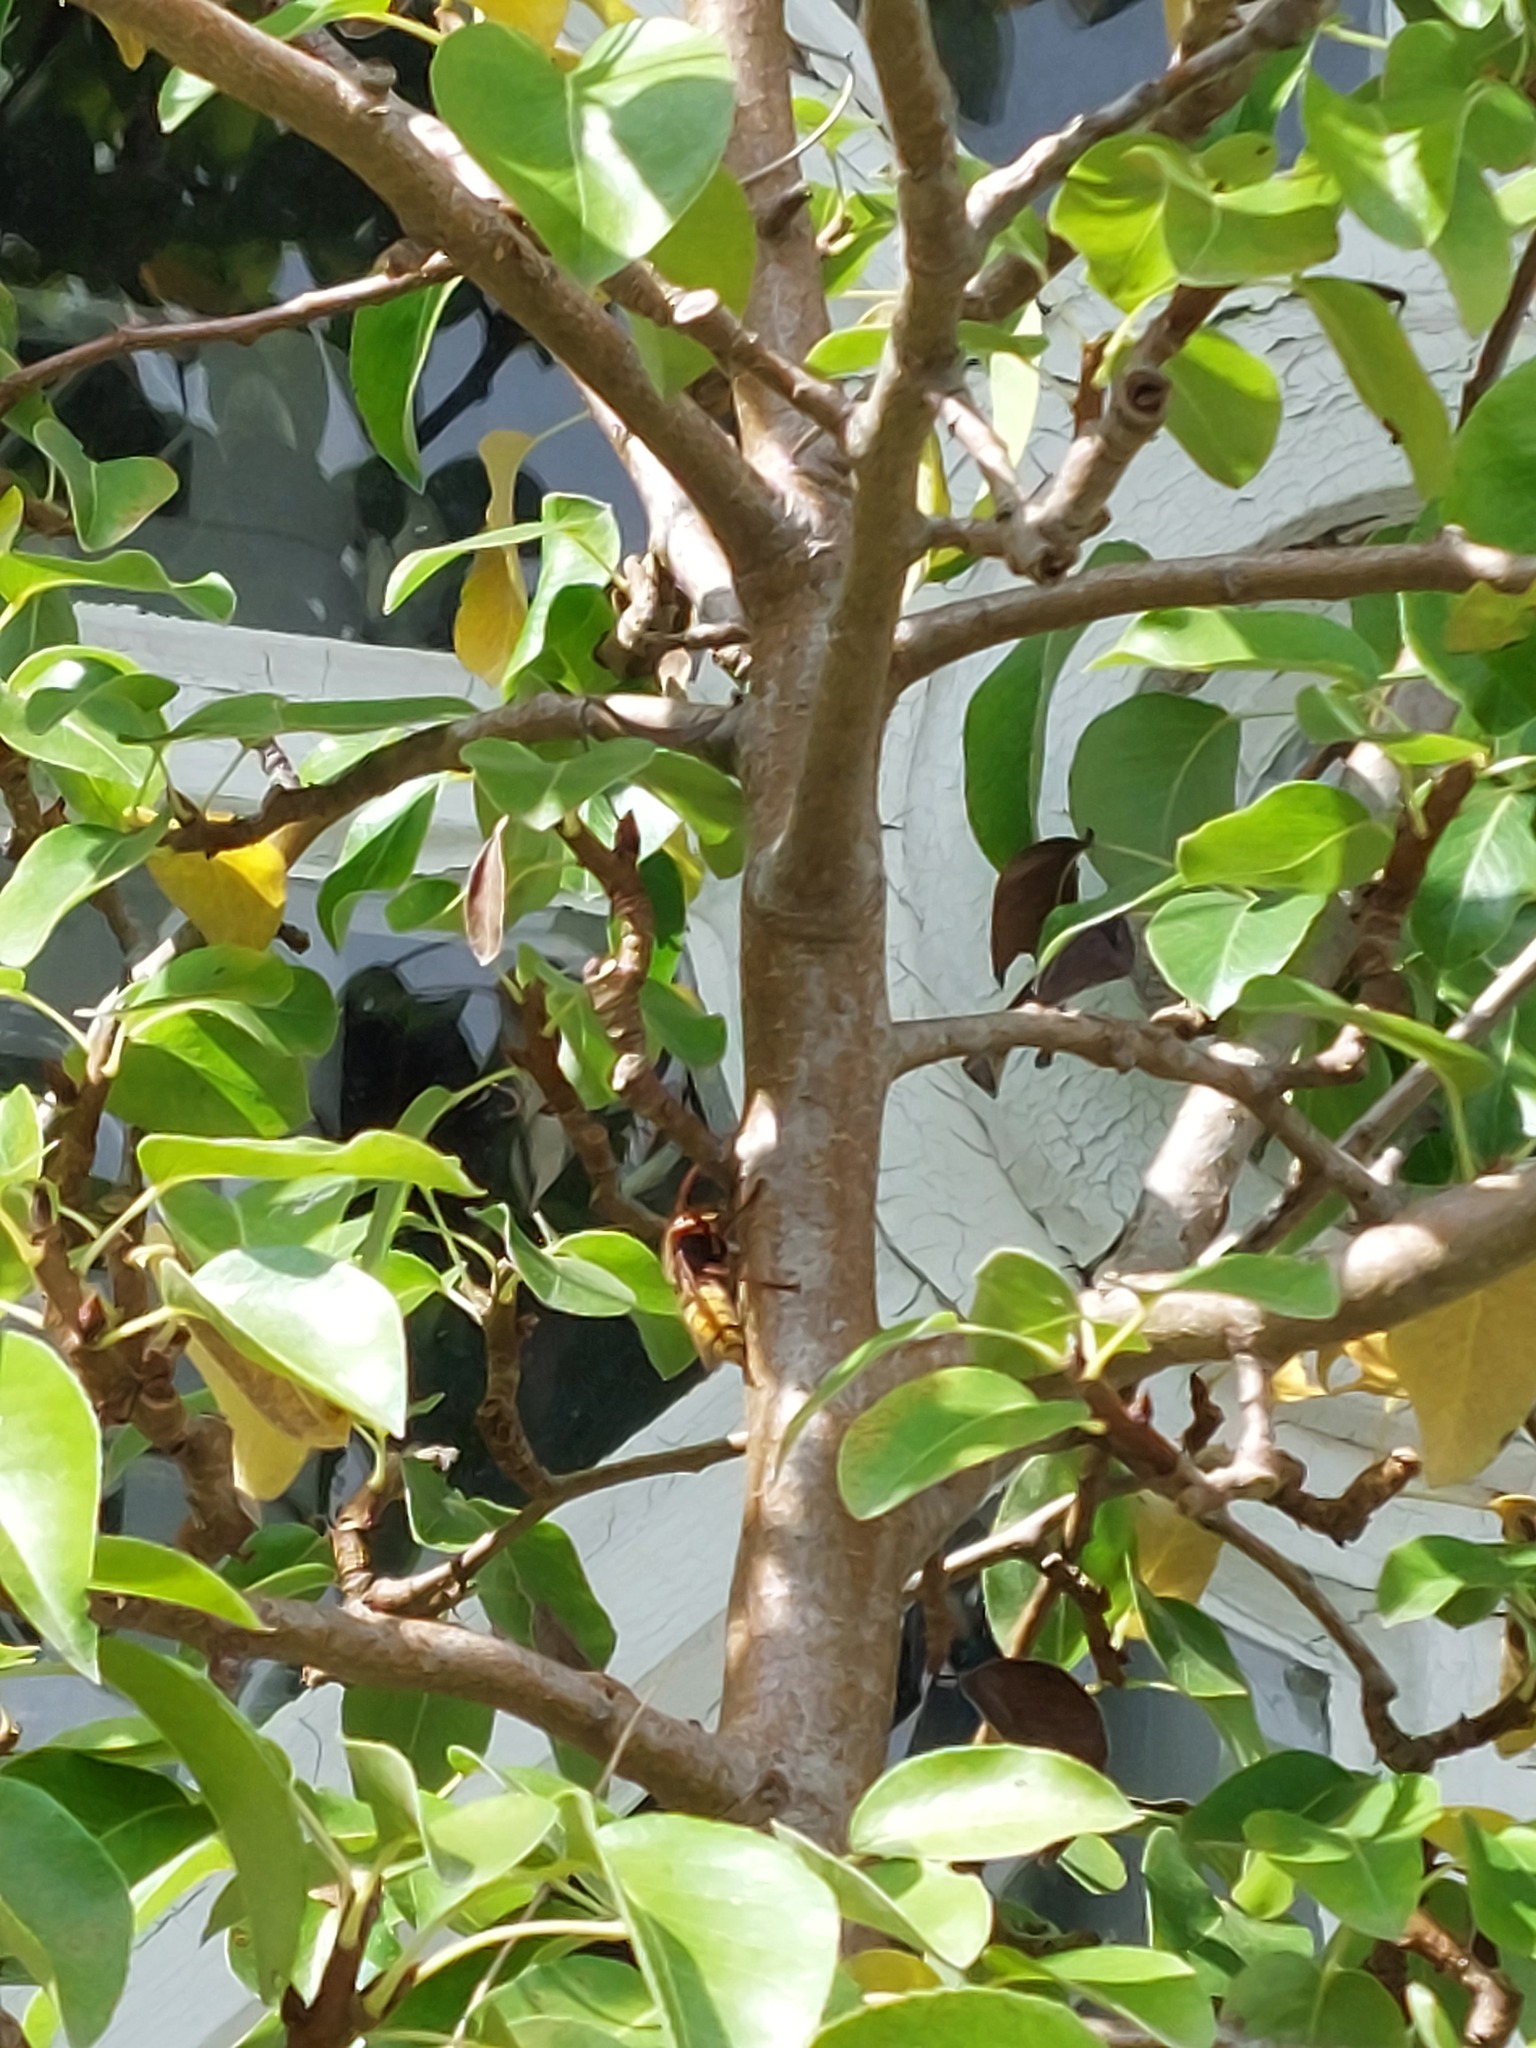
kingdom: Animalia
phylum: Arthropoda
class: Insecta
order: Hymenoptera
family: Vespidae
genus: Vespa
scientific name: Vespa crabro
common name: Hornet
